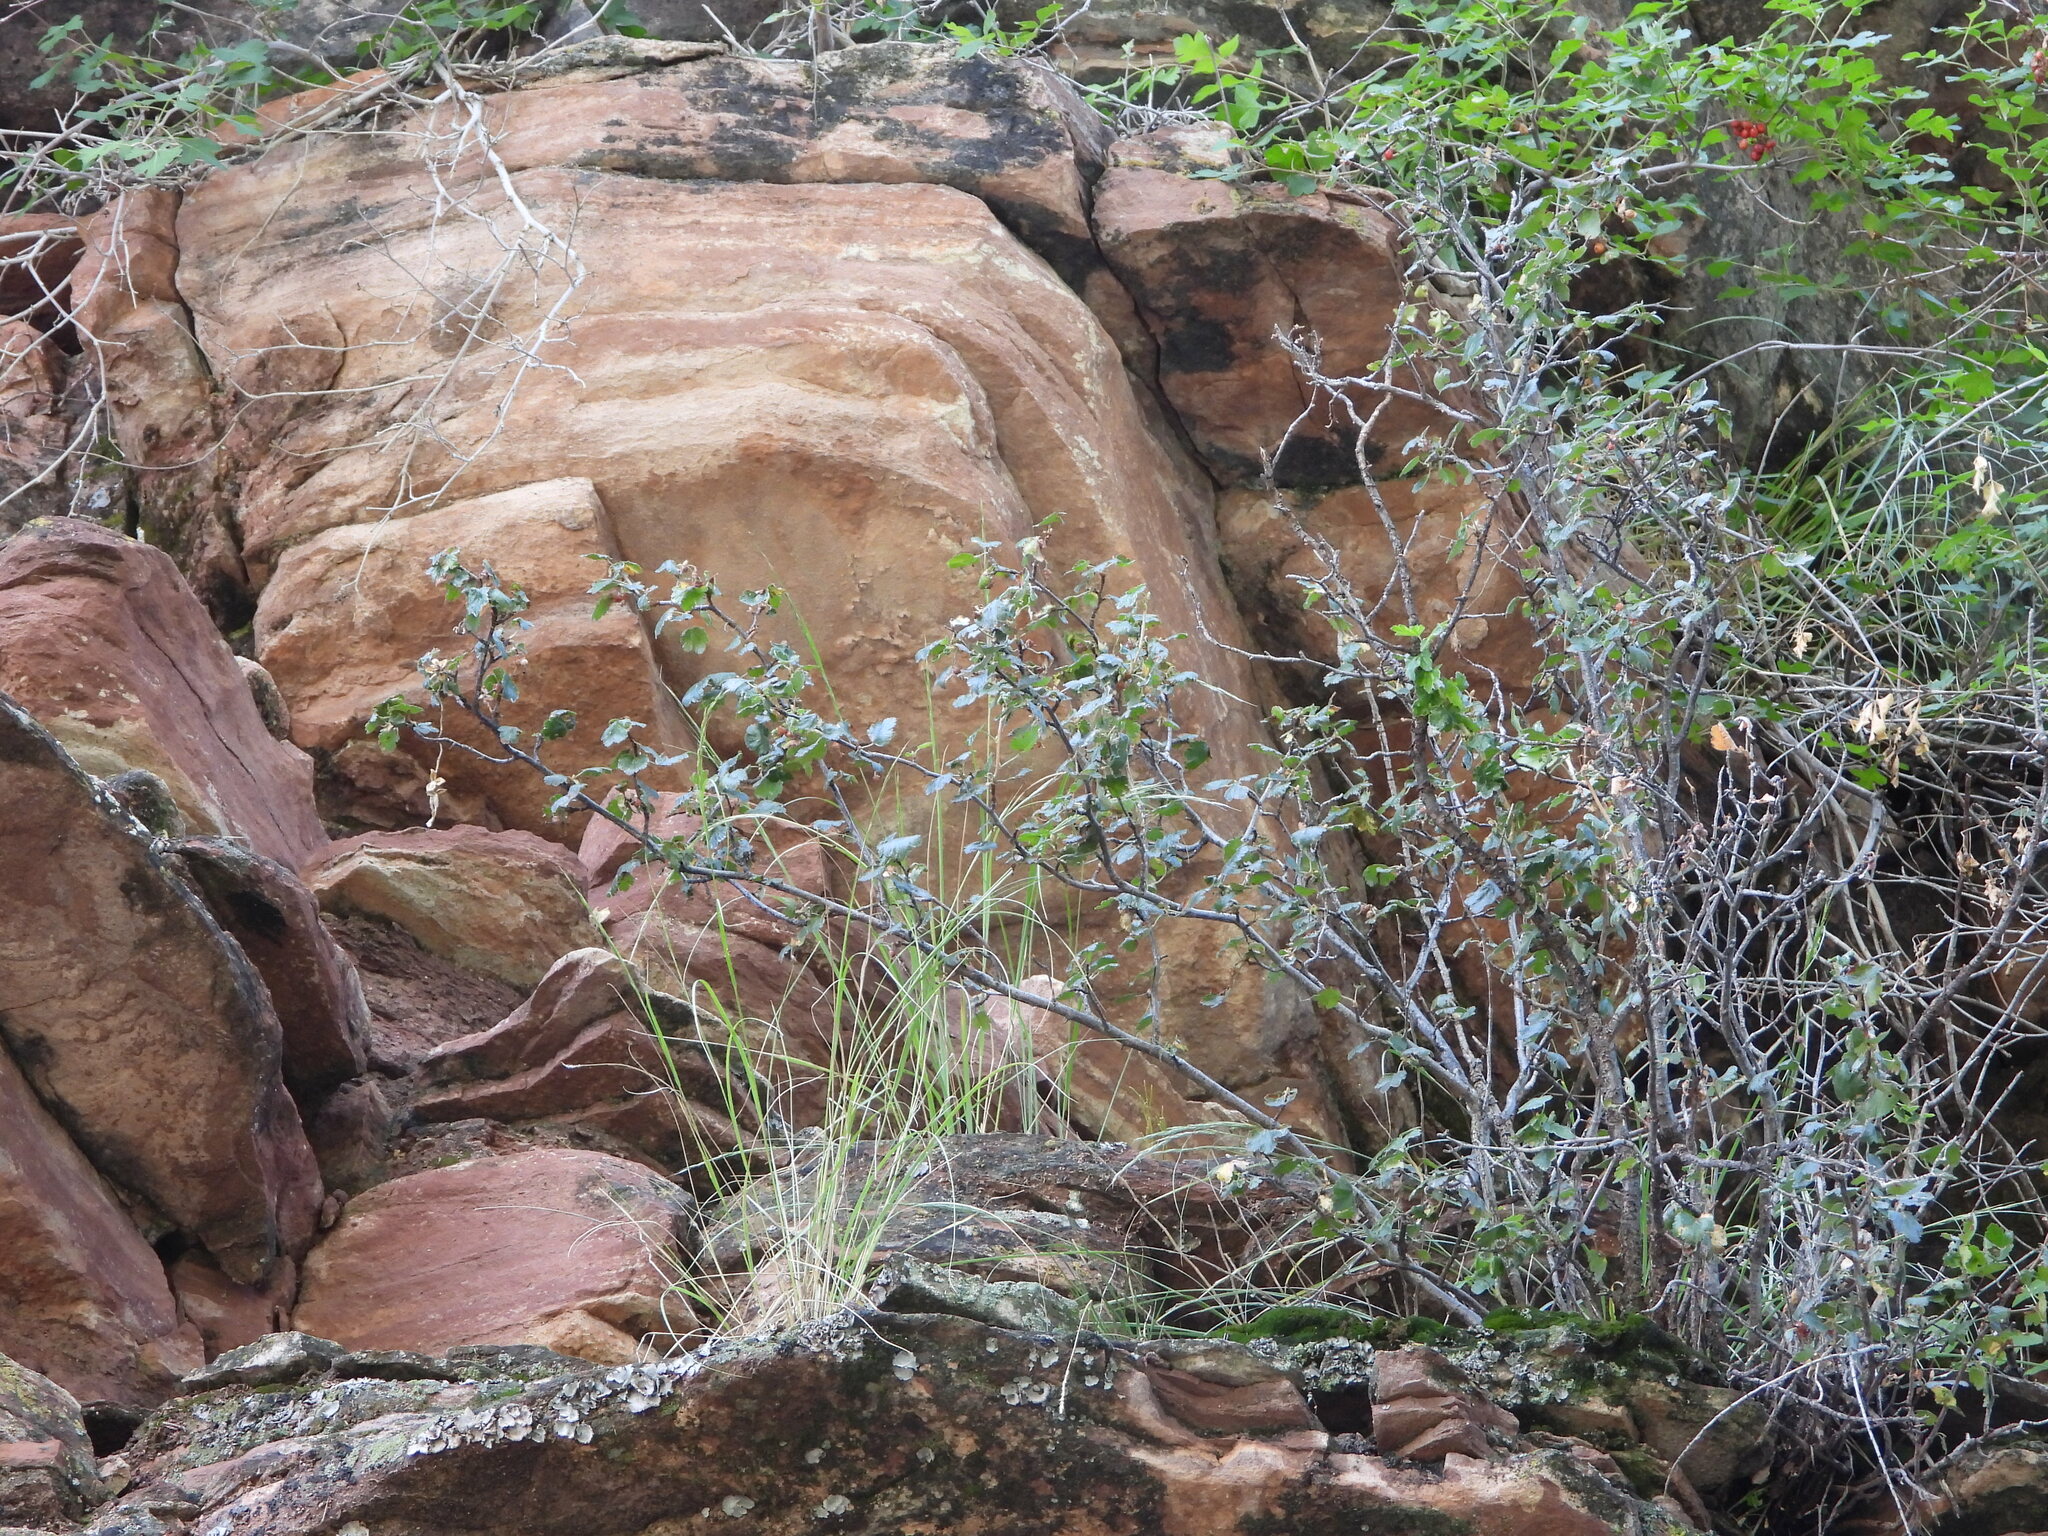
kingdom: Plantae
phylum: Tracheophyta
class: Magnoliopsida
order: Saxifragales
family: Grossulariaceae
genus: Ribes
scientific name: Ribes cereum
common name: Wax currant
